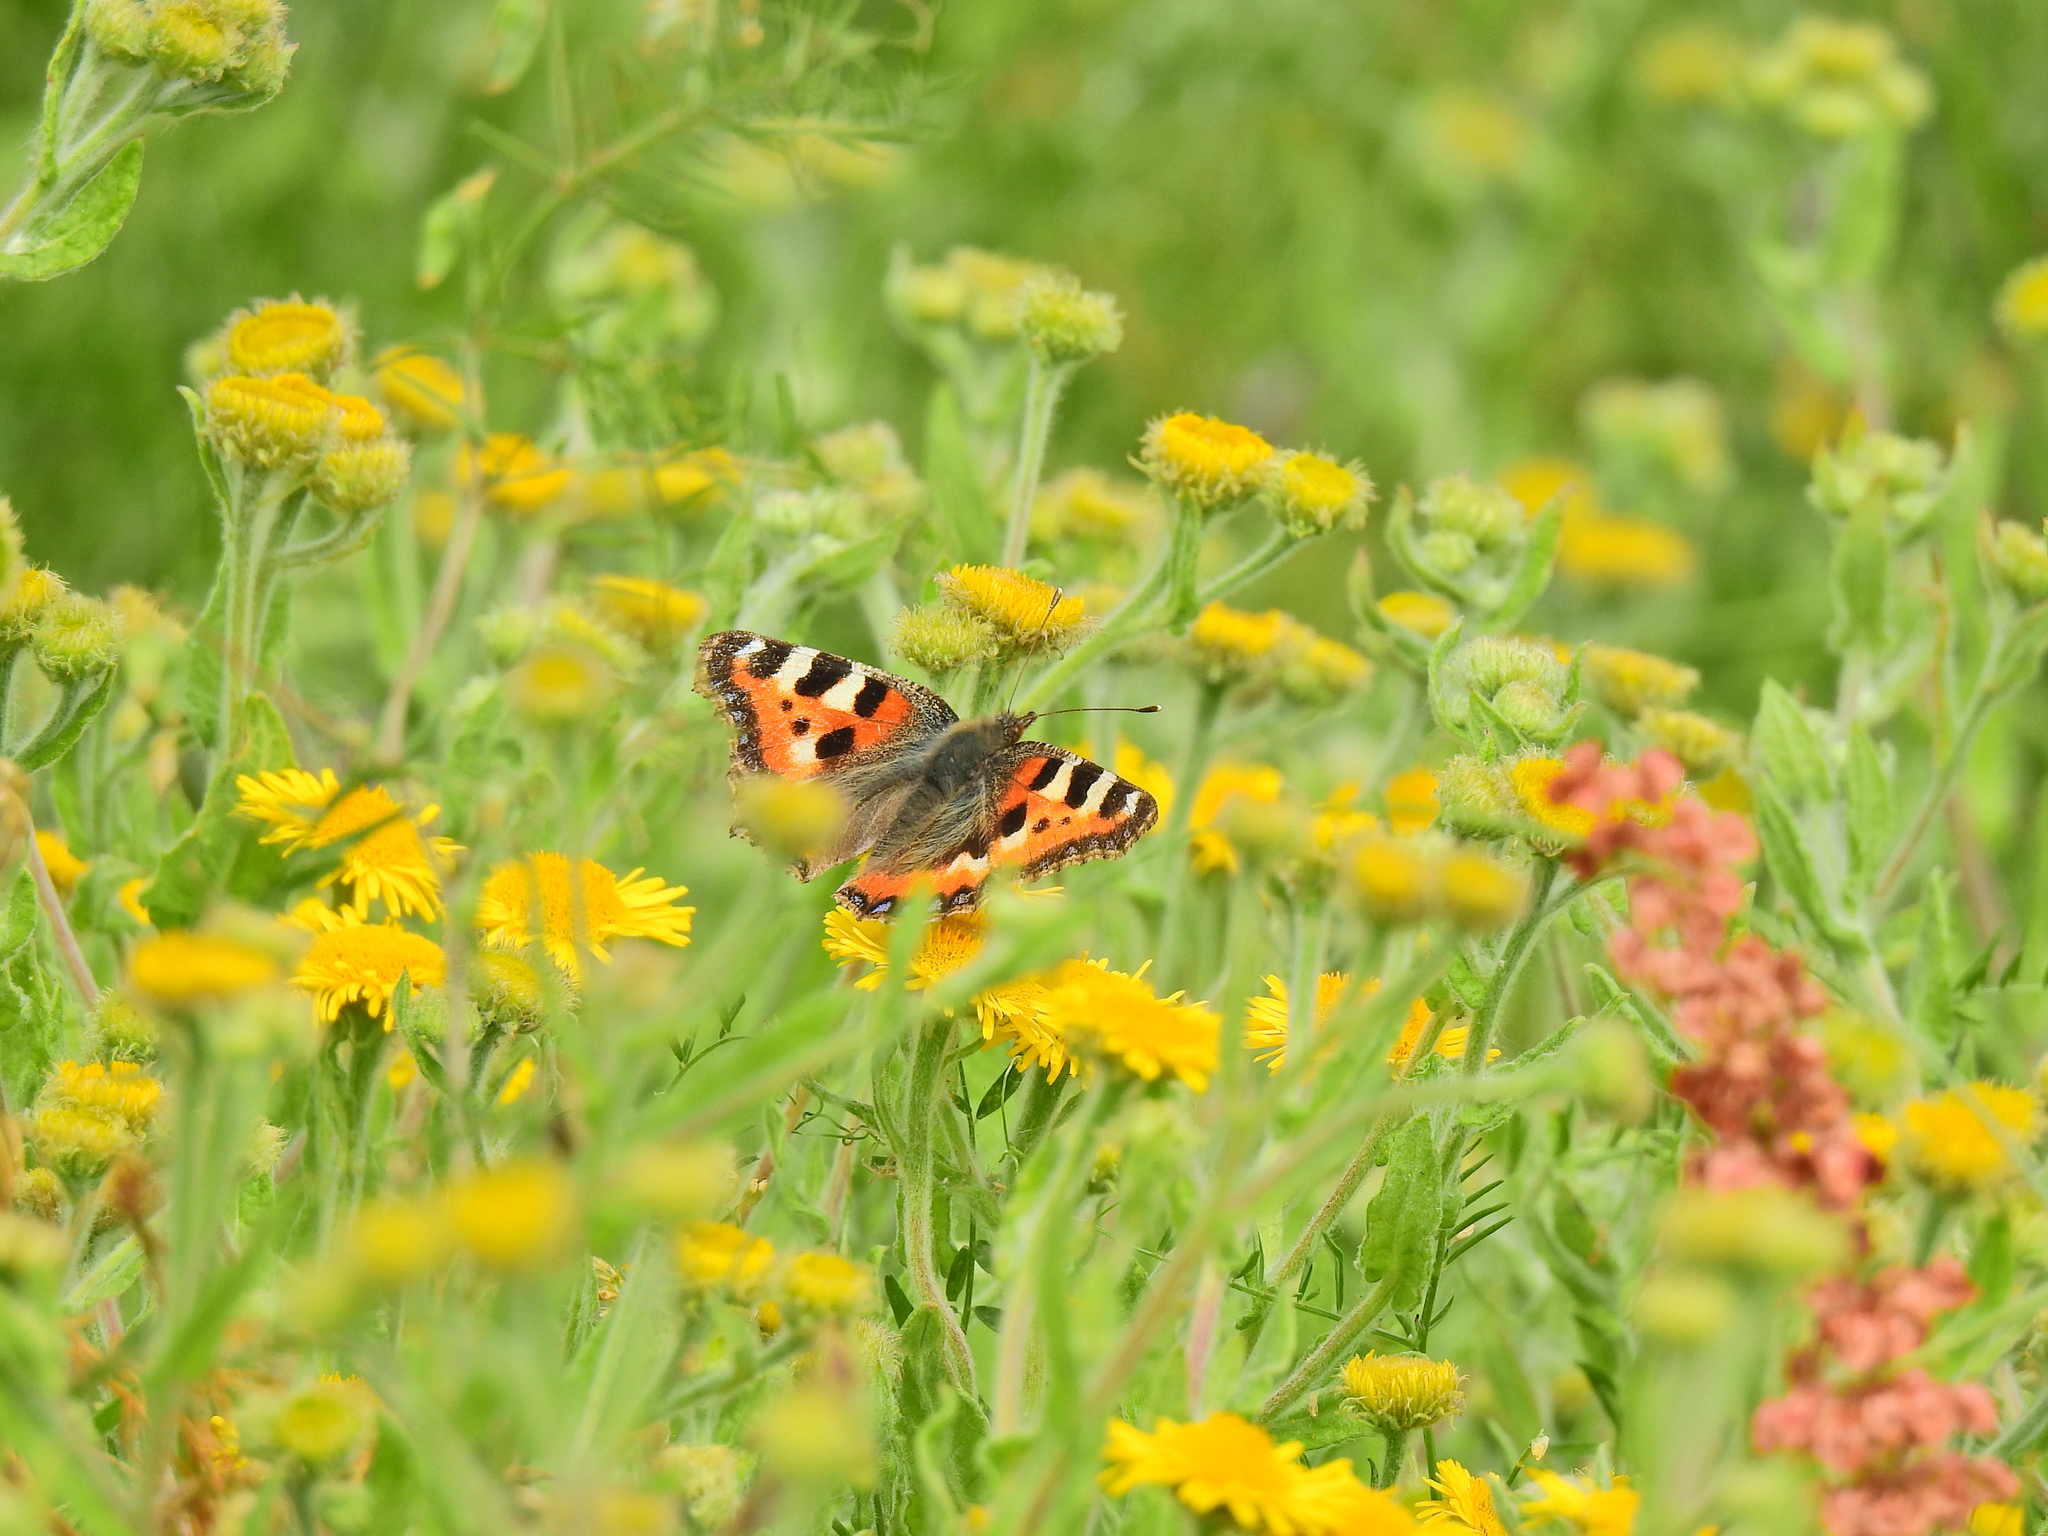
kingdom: Animalia
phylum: Arthropoda
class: Insecta
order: Lepidoptera
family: Nymphalidae
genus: Aglais
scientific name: Aglais urticae
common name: Small tortoiseshell
